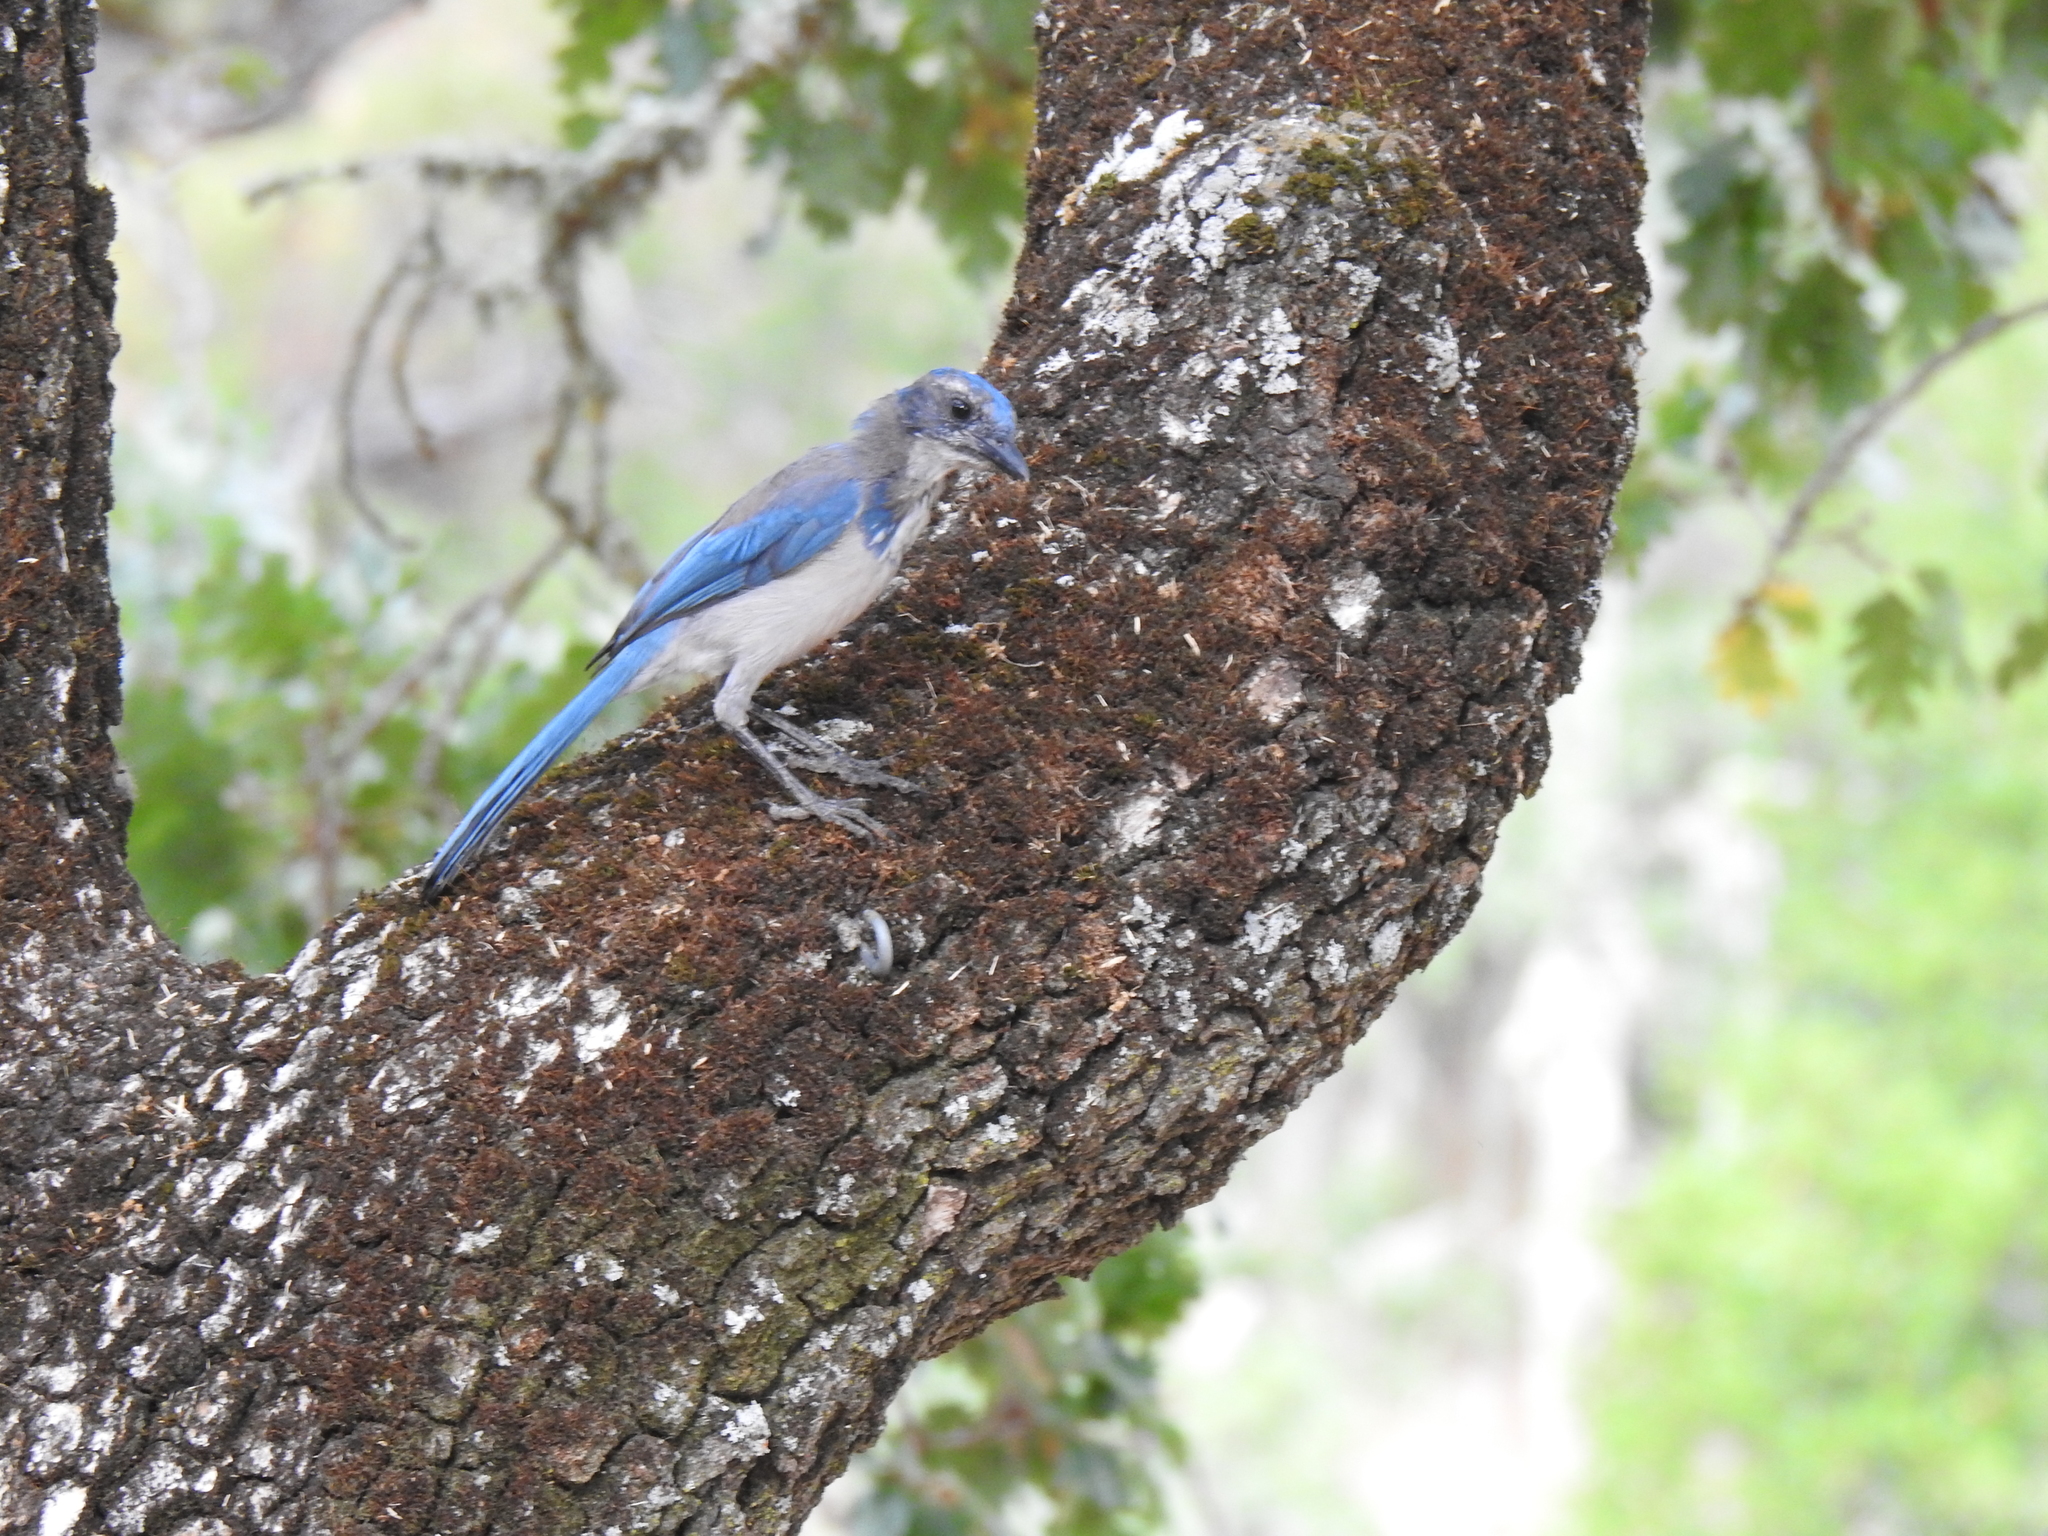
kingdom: Animalia
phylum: Chordata
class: Aves
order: Passeriformes
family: Corvidae
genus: Aphelocoma
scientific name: Aphelocoma californica
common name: California scrub-jay
